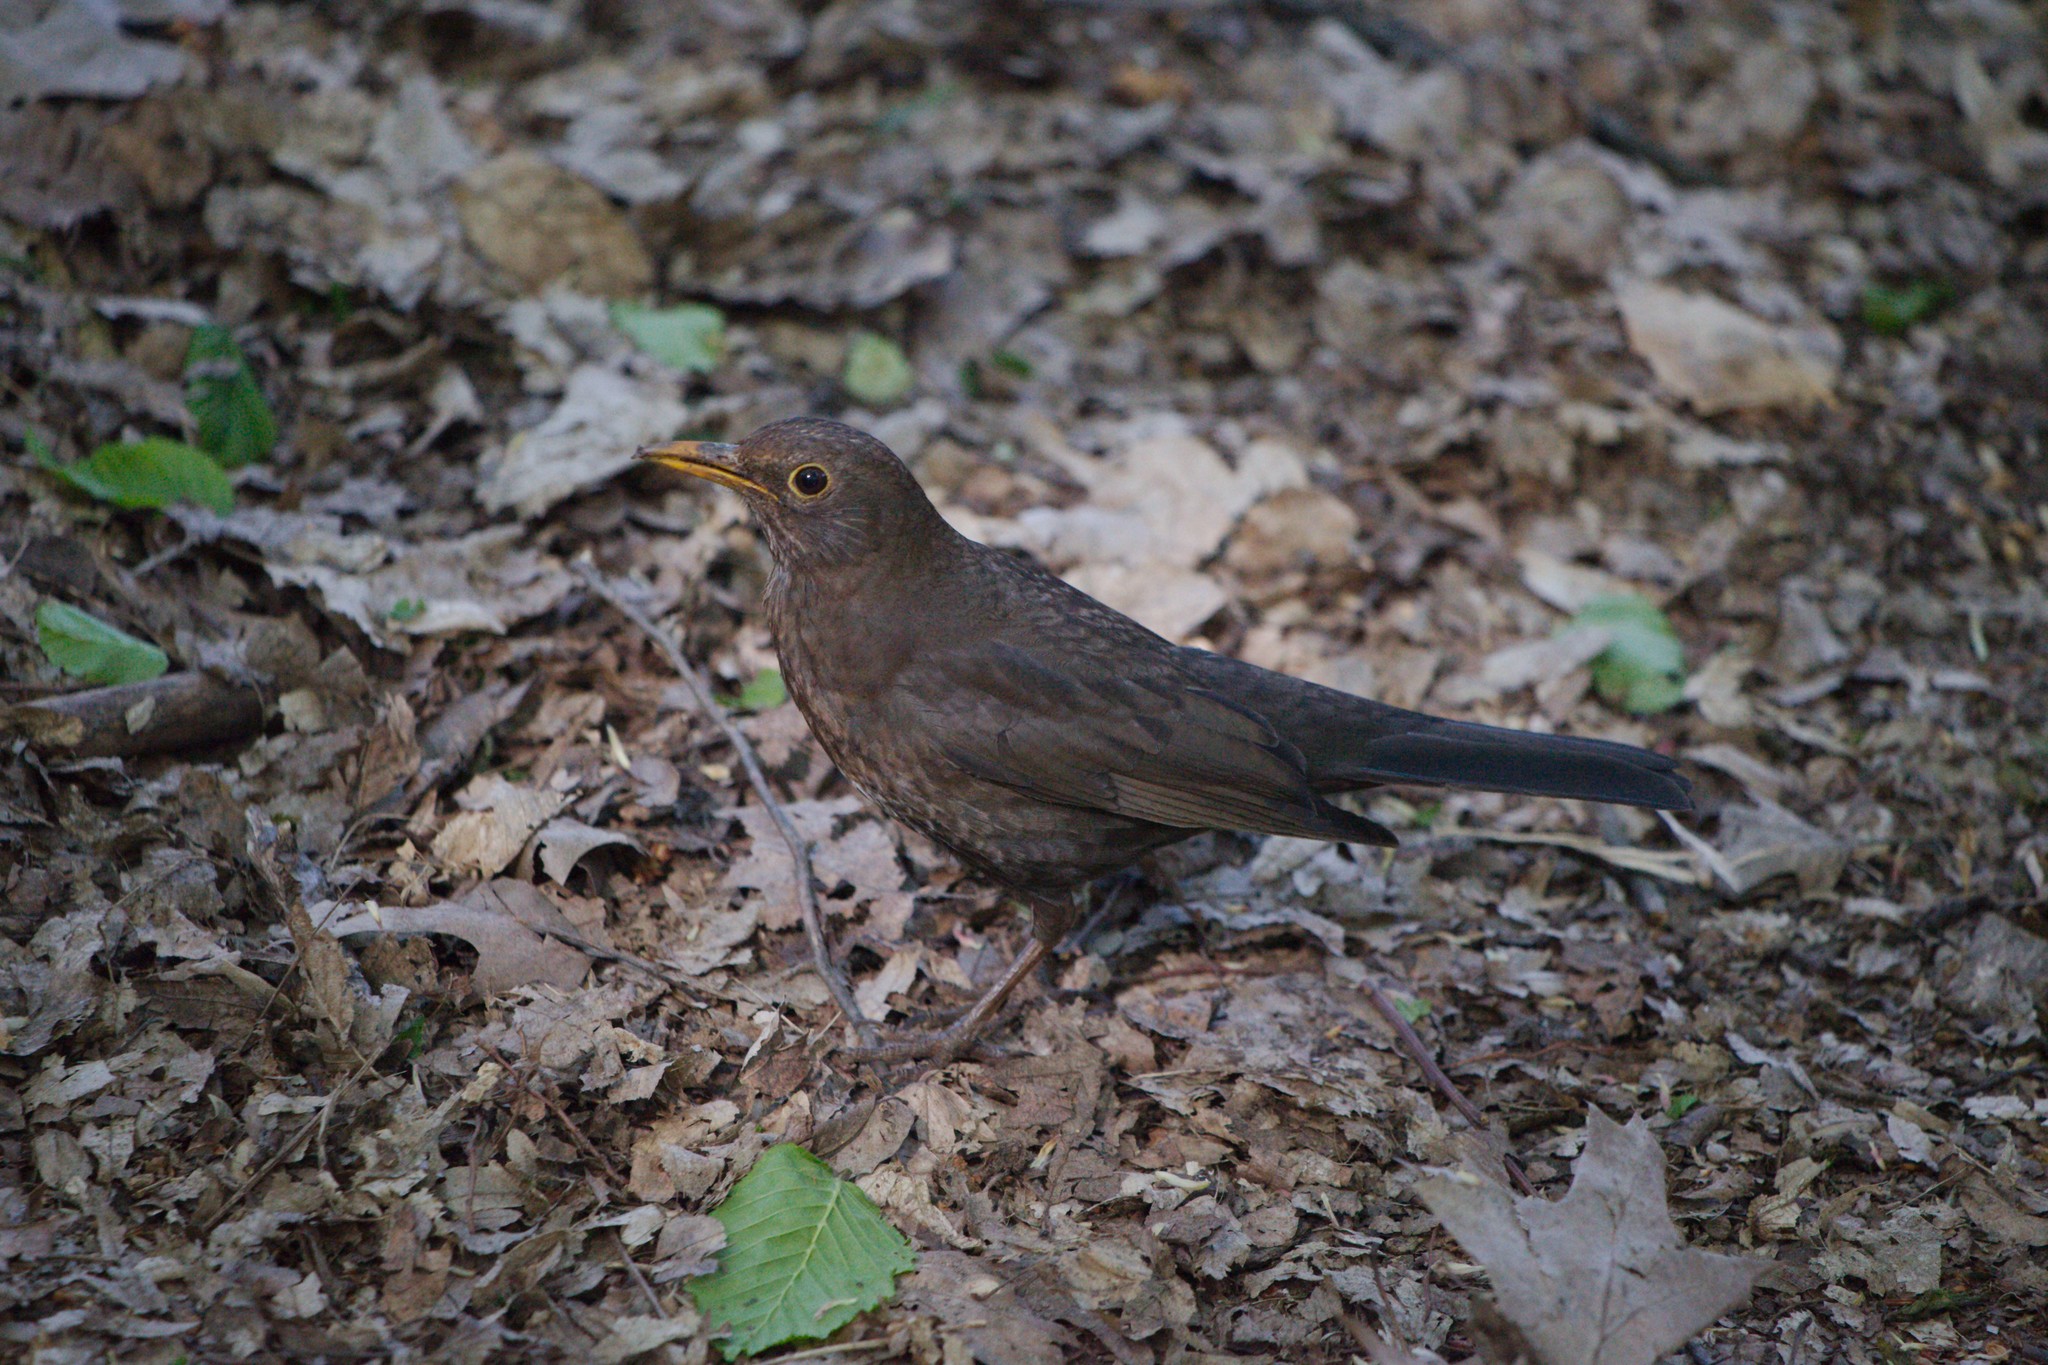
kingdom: Animalia
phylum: Chordata
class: Aves
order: Passeriformes
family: Turdidae
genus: Turdus
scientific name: Turdus merula
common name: Common blackbird
